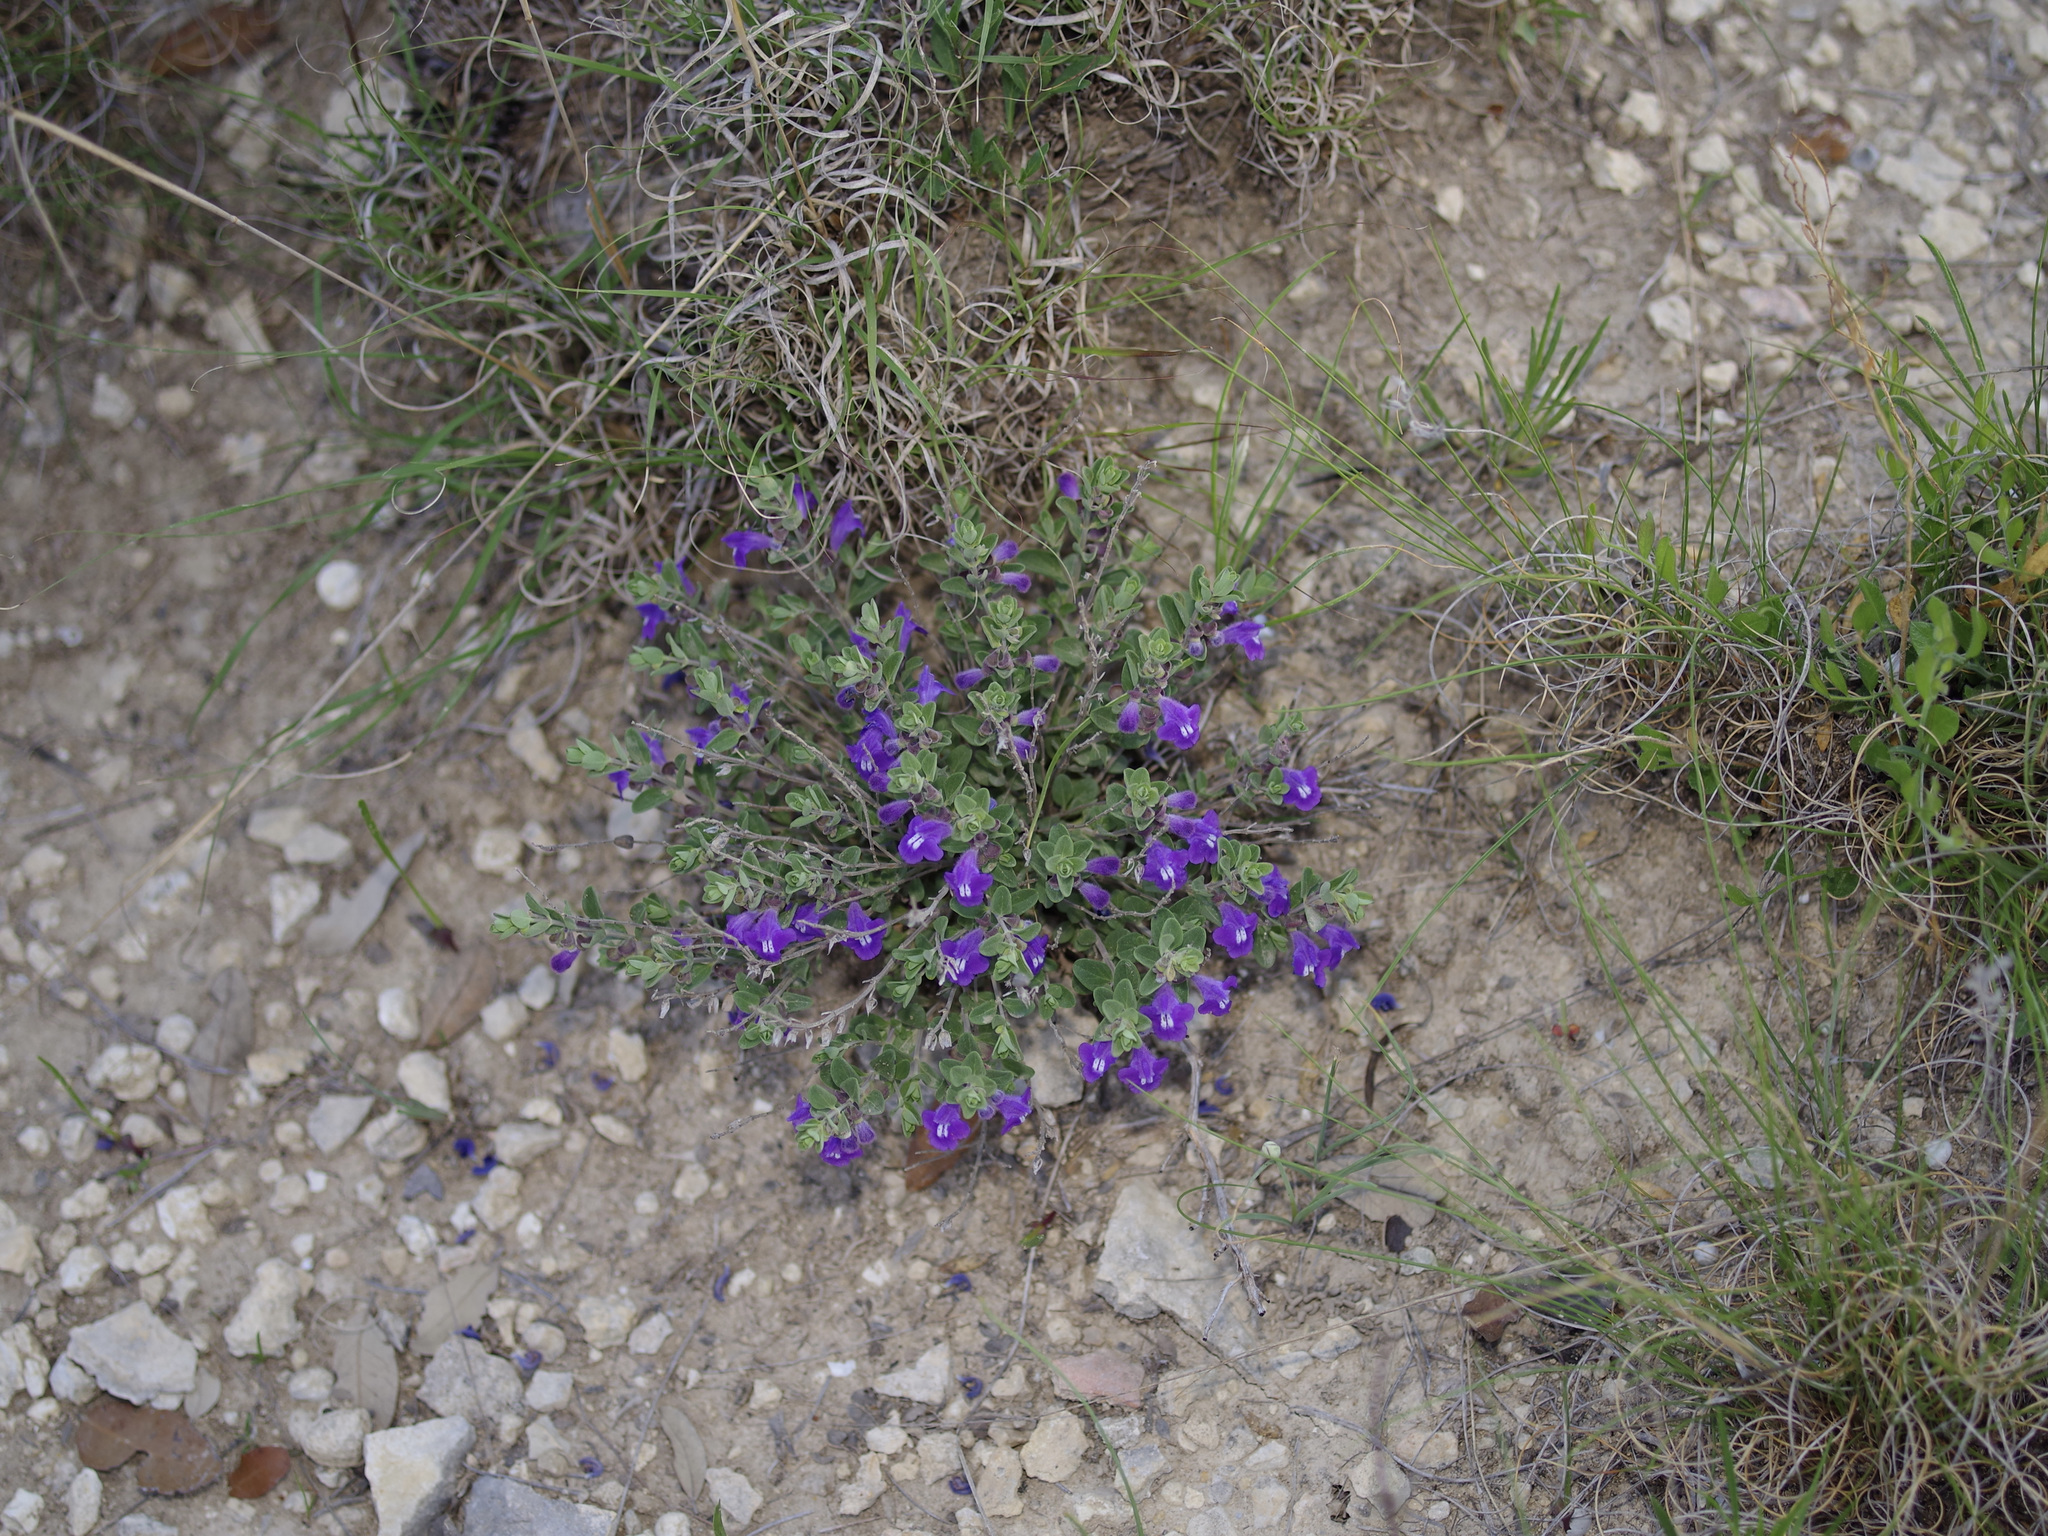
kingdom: Plantae
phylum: Tracheophyta
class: Magnoliopsida
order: Lamiales
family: Lamiaceae
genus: Scutellaria
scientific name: Scutellaria wrightii
